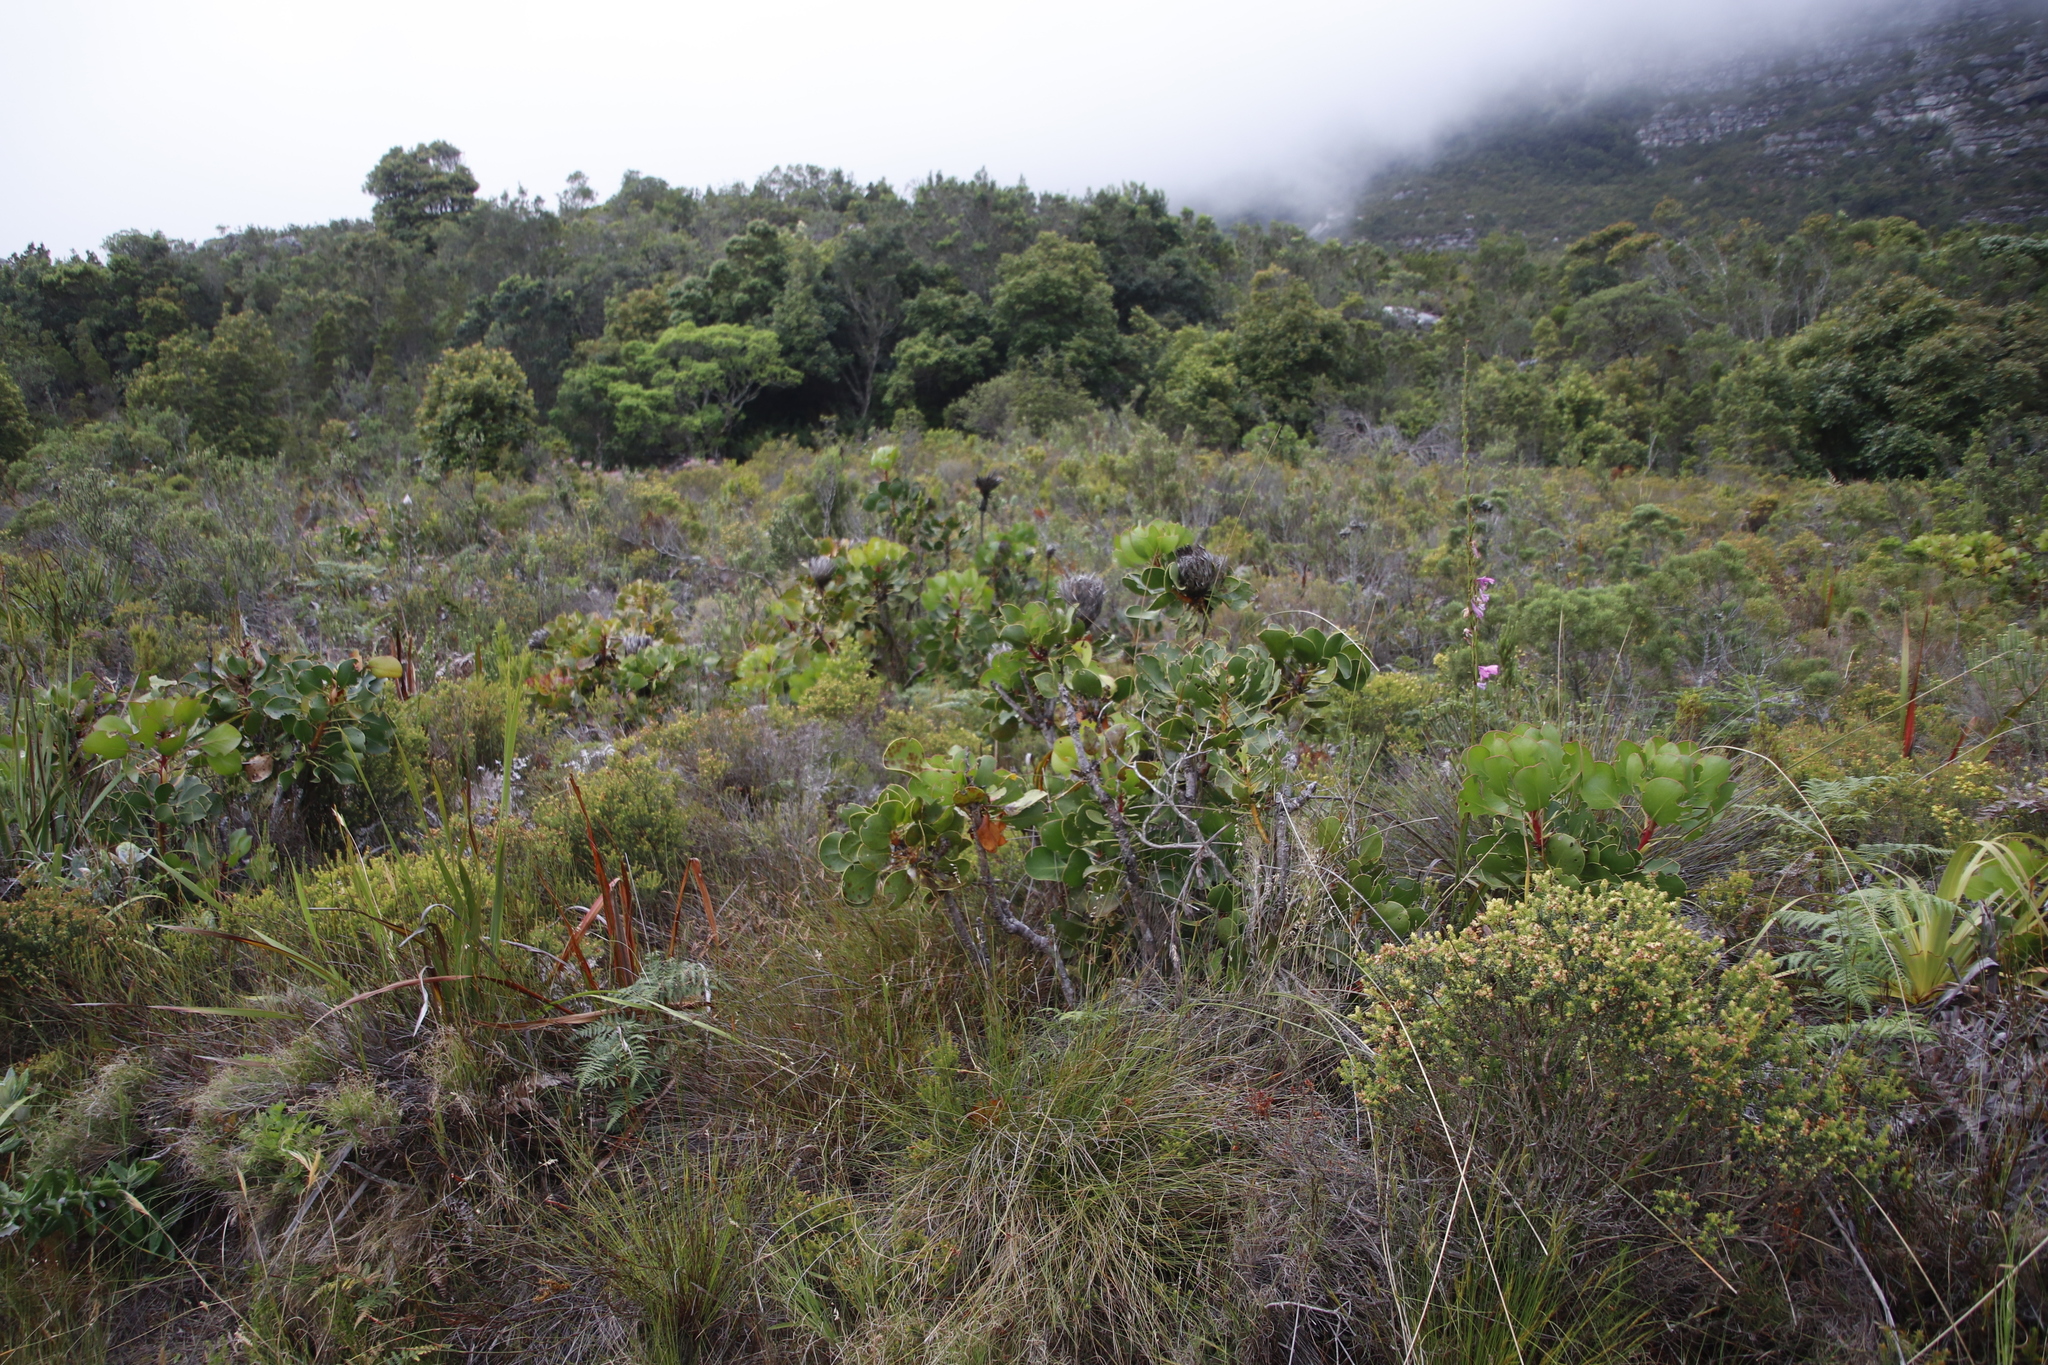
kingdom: Plantae
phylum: Tracheophyta
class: Magnoliopsida
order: Proteales
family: Proteaceae
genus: Protea
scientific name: Protea cynaroides
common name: King protea
